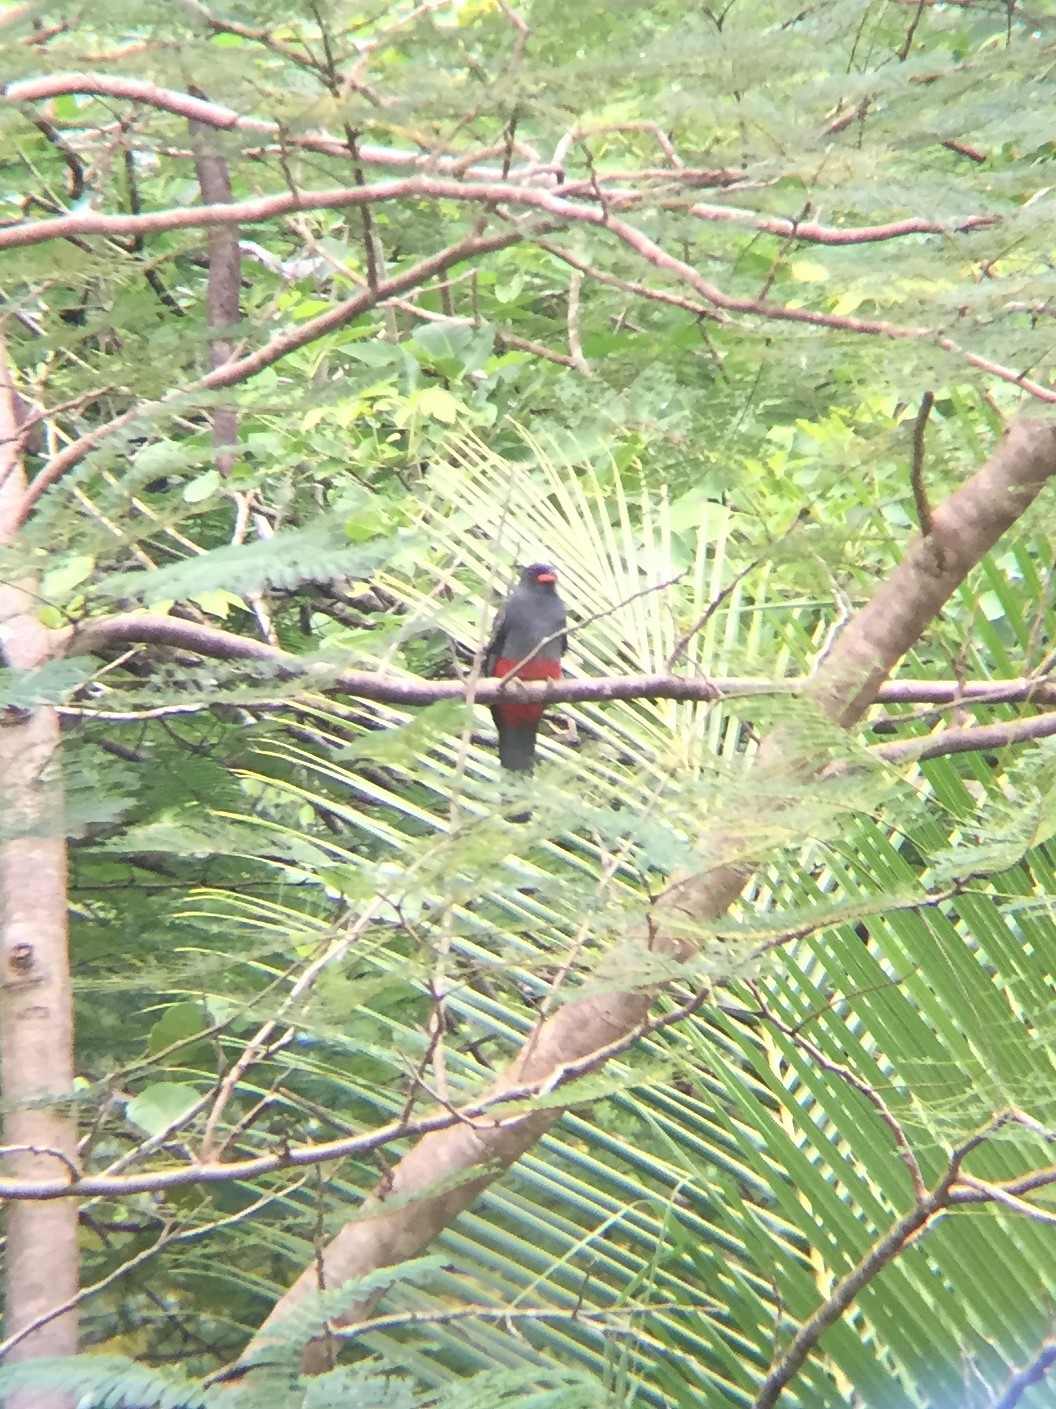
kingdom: Animalia
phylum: Chordata
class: Aves
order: Trogoniformes
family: Trogonidae
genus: Trogon
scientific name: Trogon massena
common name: Slaty-tailed trogon
